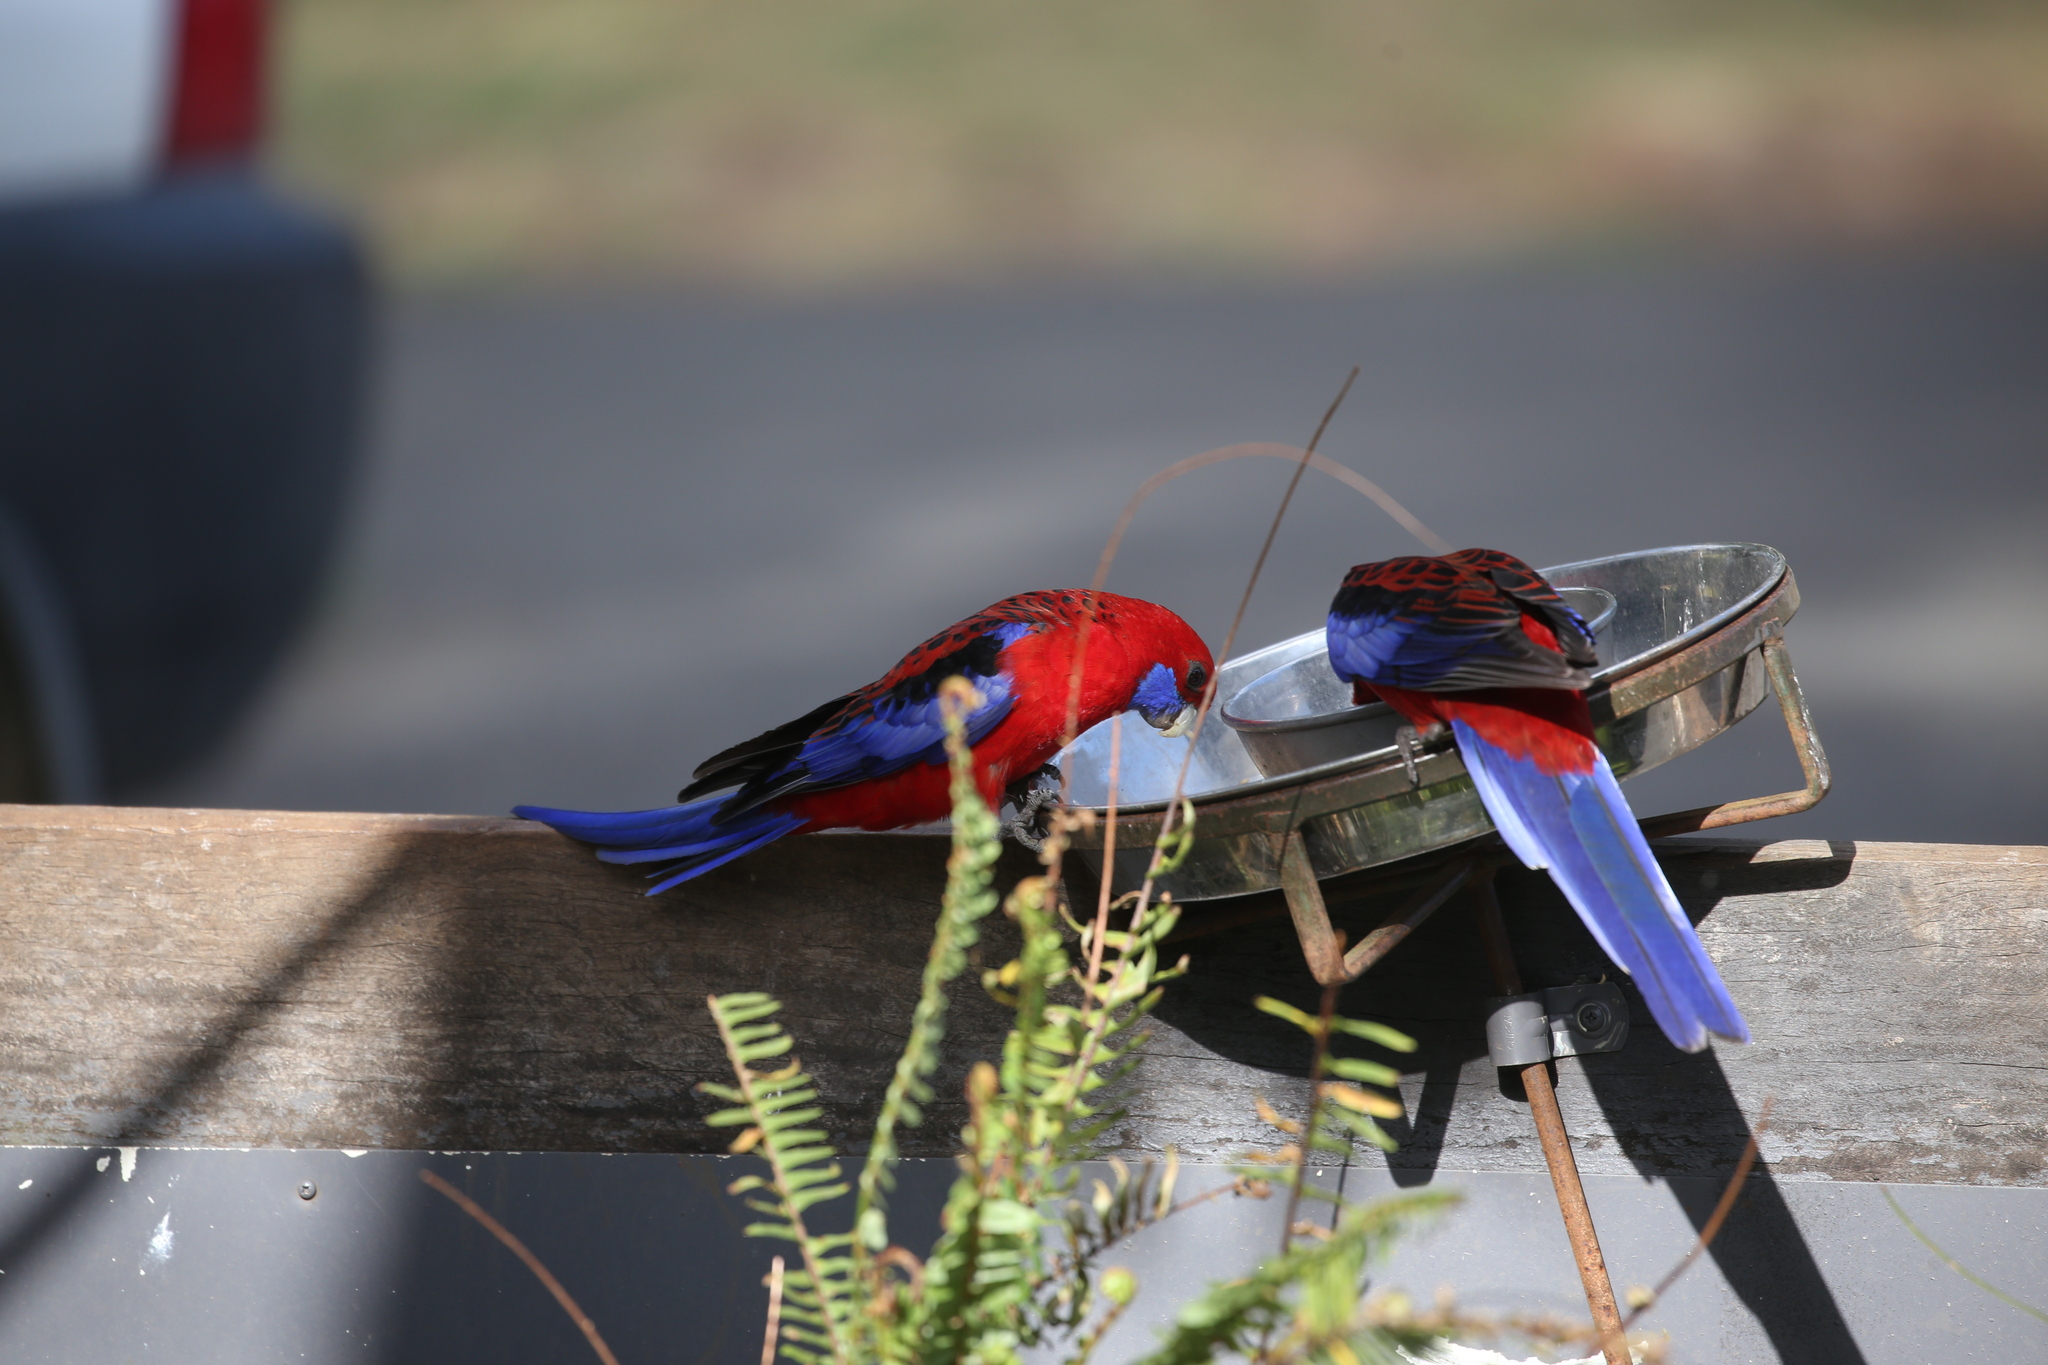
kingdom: Animalia
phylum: Chordata
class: Aves
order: Psittaciformes
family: Psittacidae
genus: Platycercus
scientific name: Platycercus elegans
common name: Crimson rosella
